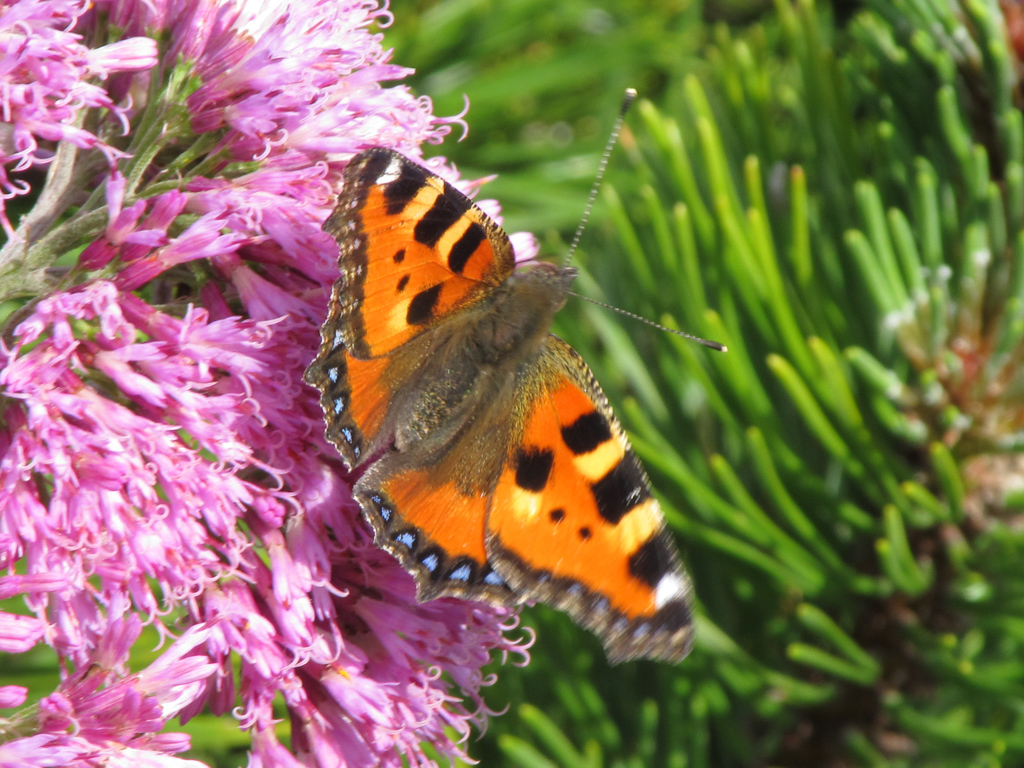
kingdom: Animalia
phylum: Arthropoda
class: Insecta
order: Lepidoptera
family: Nymphalidae
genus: Aglais
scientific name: Aglais urticae
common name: Small tortoiseshell
